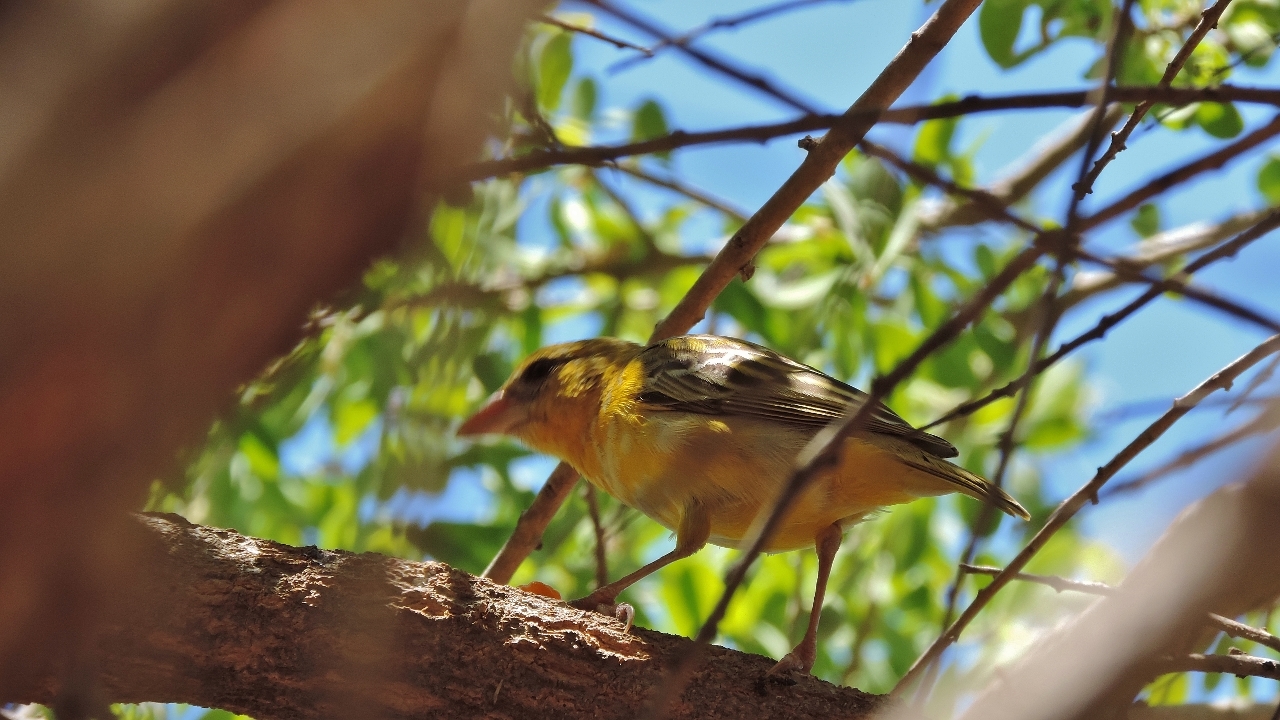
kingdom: Animalia
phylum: Chordata
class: Aves
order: Passeriformes
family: Ploceidae
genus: Ploceus
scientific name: Ploceus velatus
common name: Southern masked weaver
